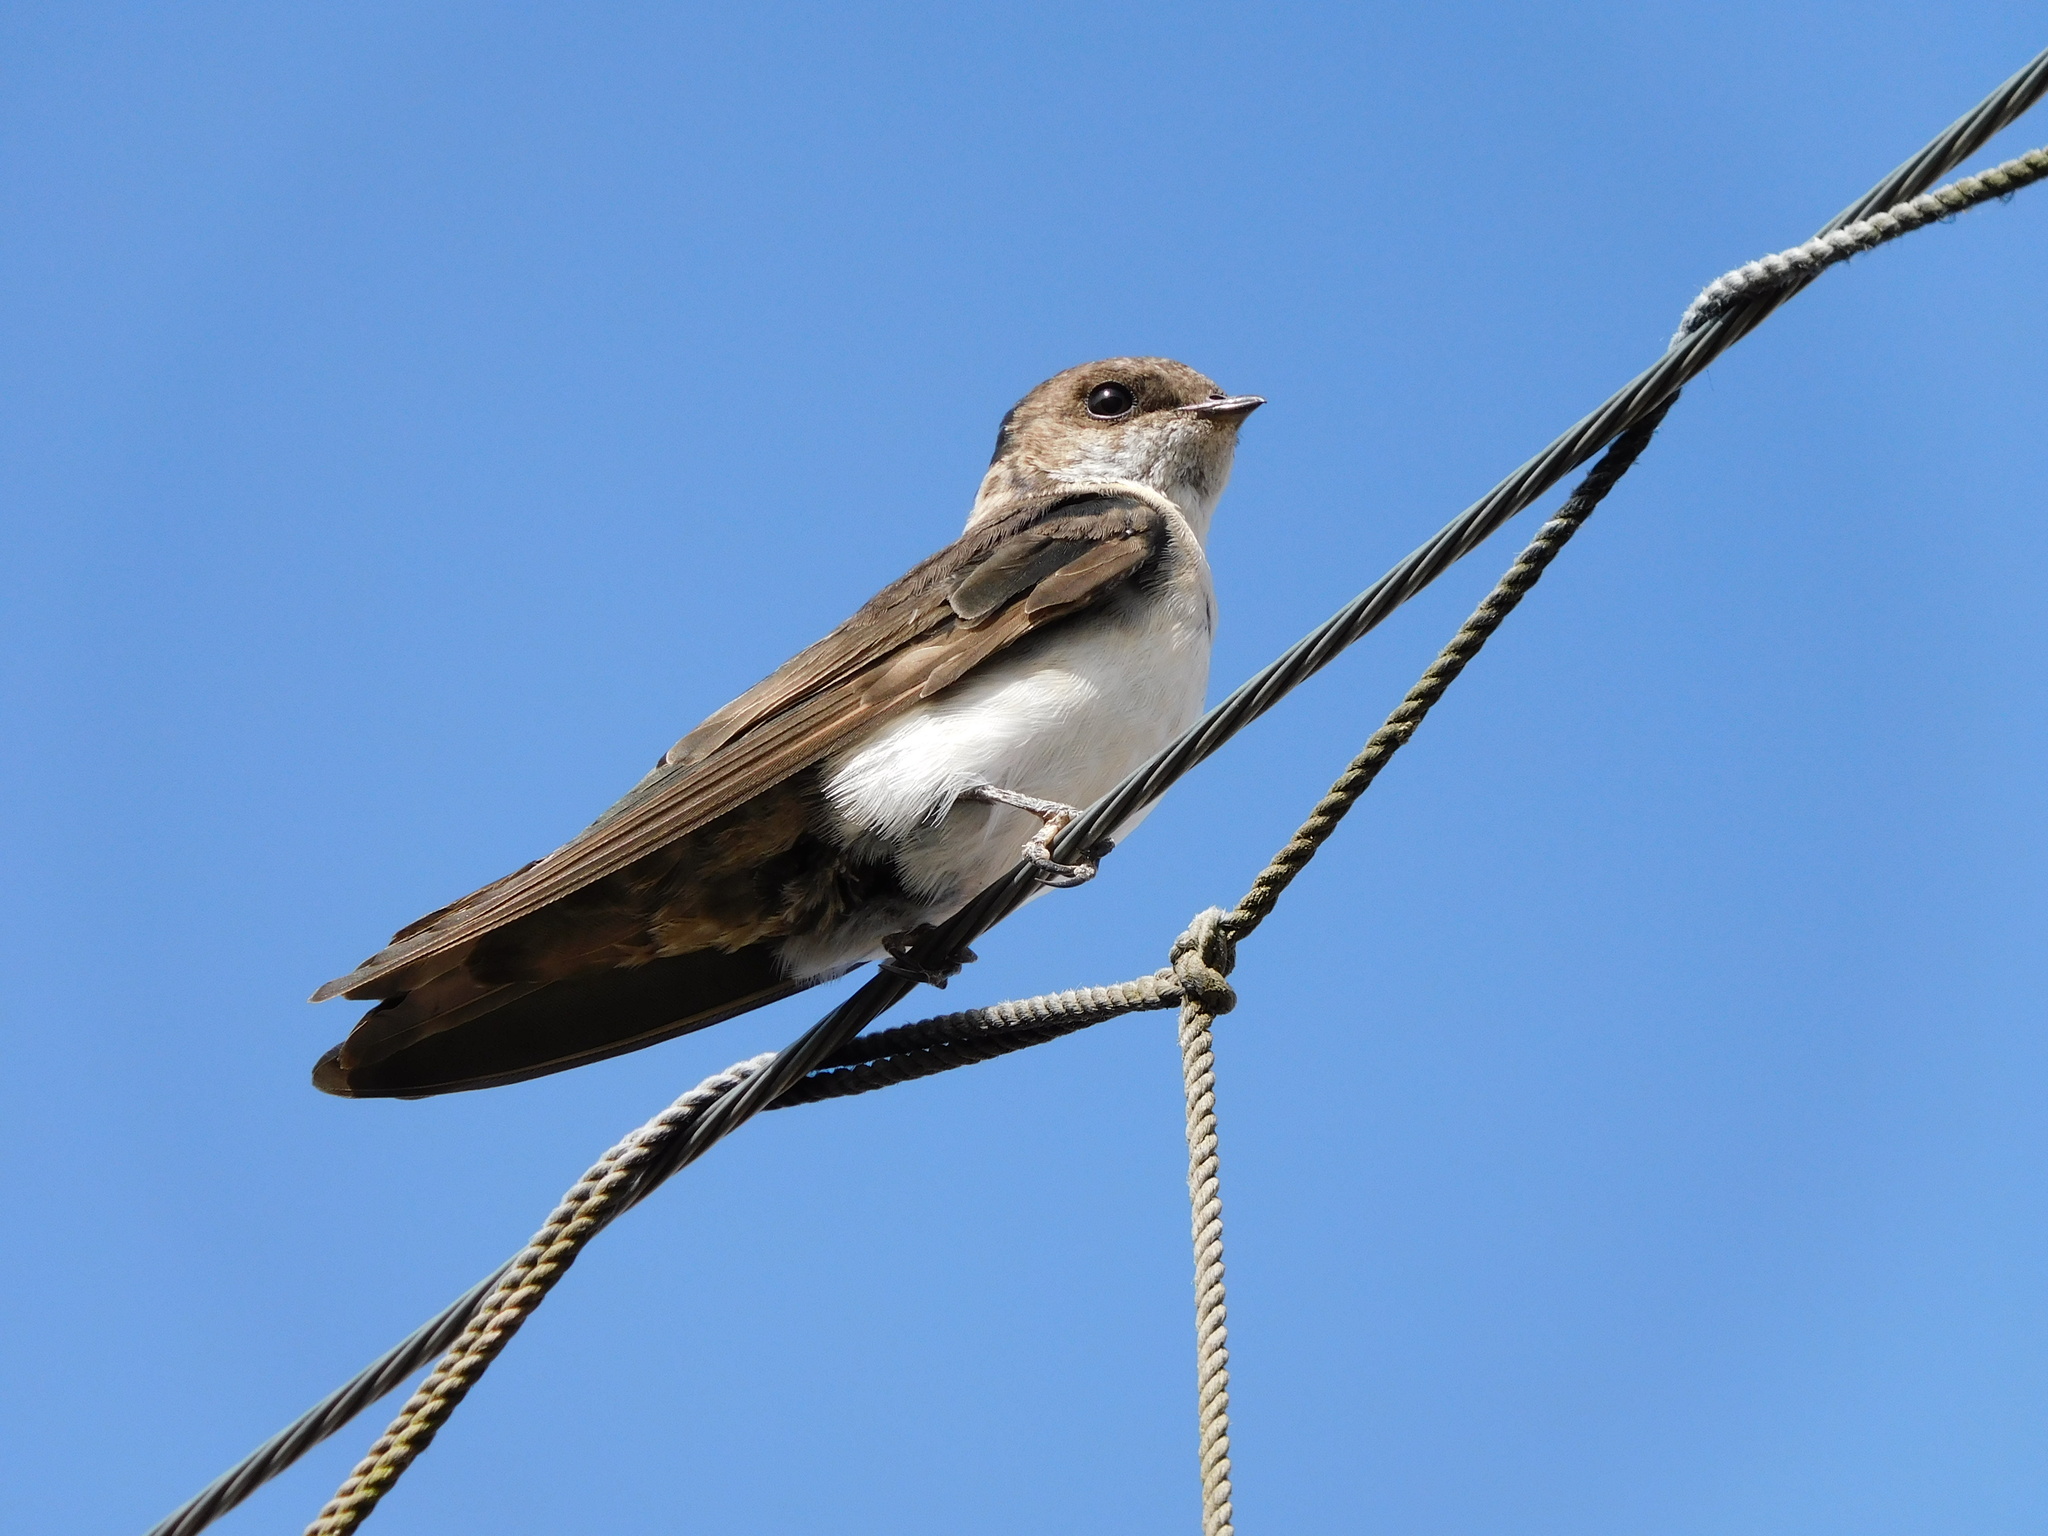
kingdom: Animalia
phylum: Chordata
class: Aves
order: Passeriformes
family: Hirundinidae
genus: Notiochelidon
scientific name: Notiochelidon cyanoleuca
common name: Blue-and-white swallow
